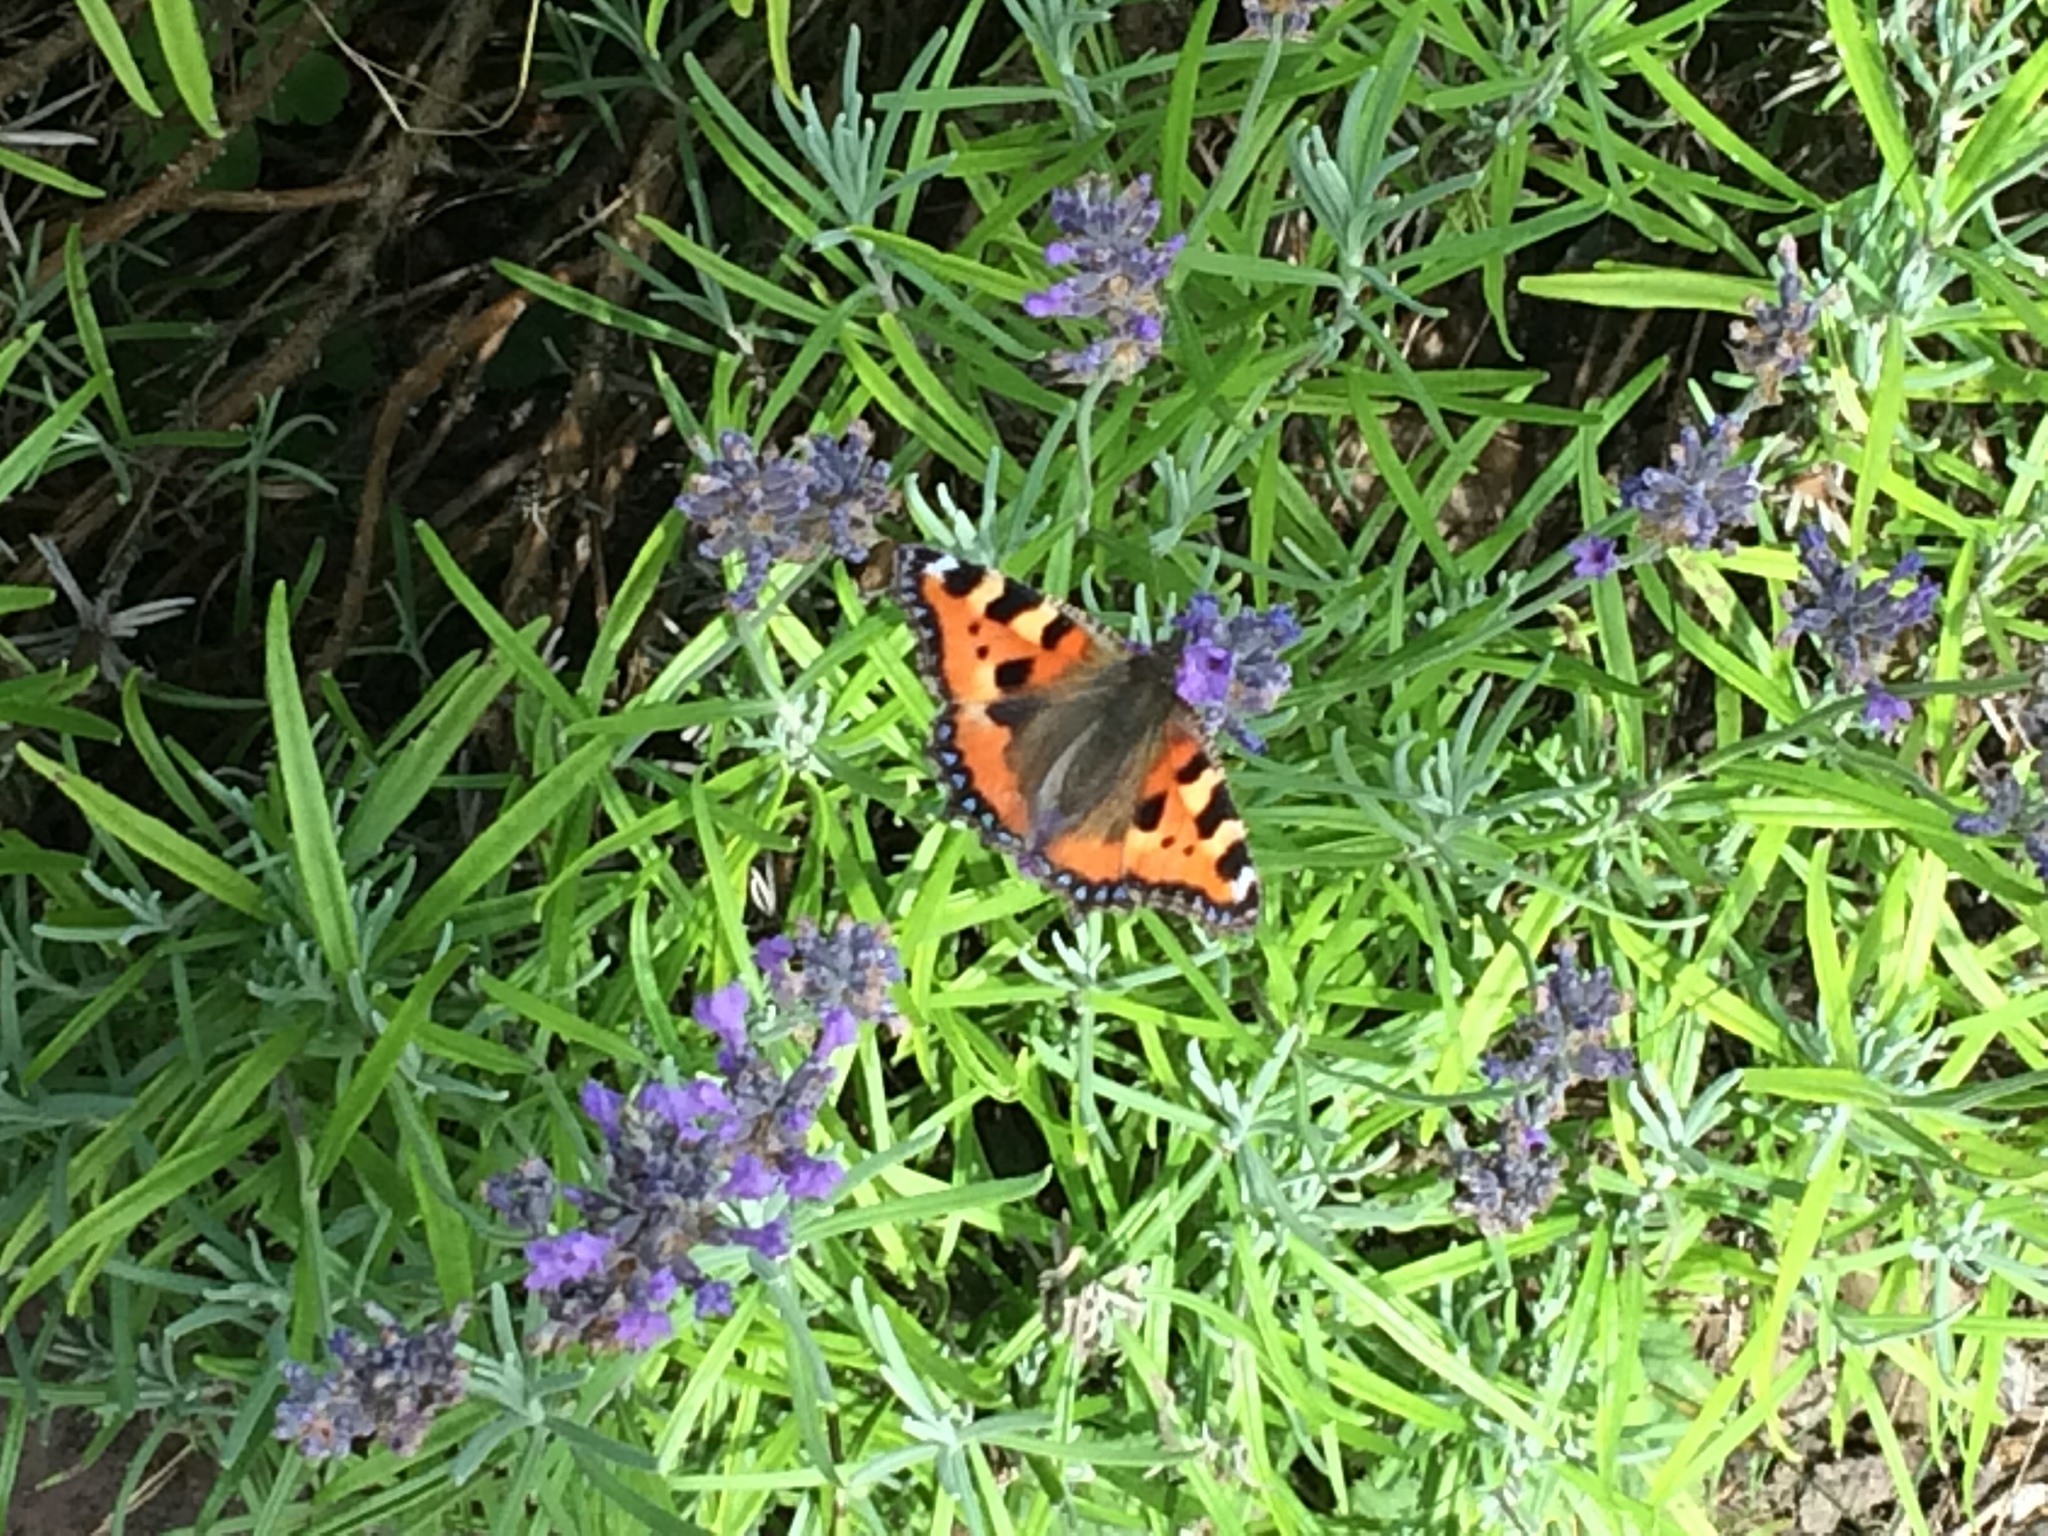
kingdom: Animalia
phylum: Arthropoda
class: Insecta
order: Lepidoptera
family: Nymphalidae
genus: Aglais
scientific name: Aglais urticae
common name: Small tortoiseshell
